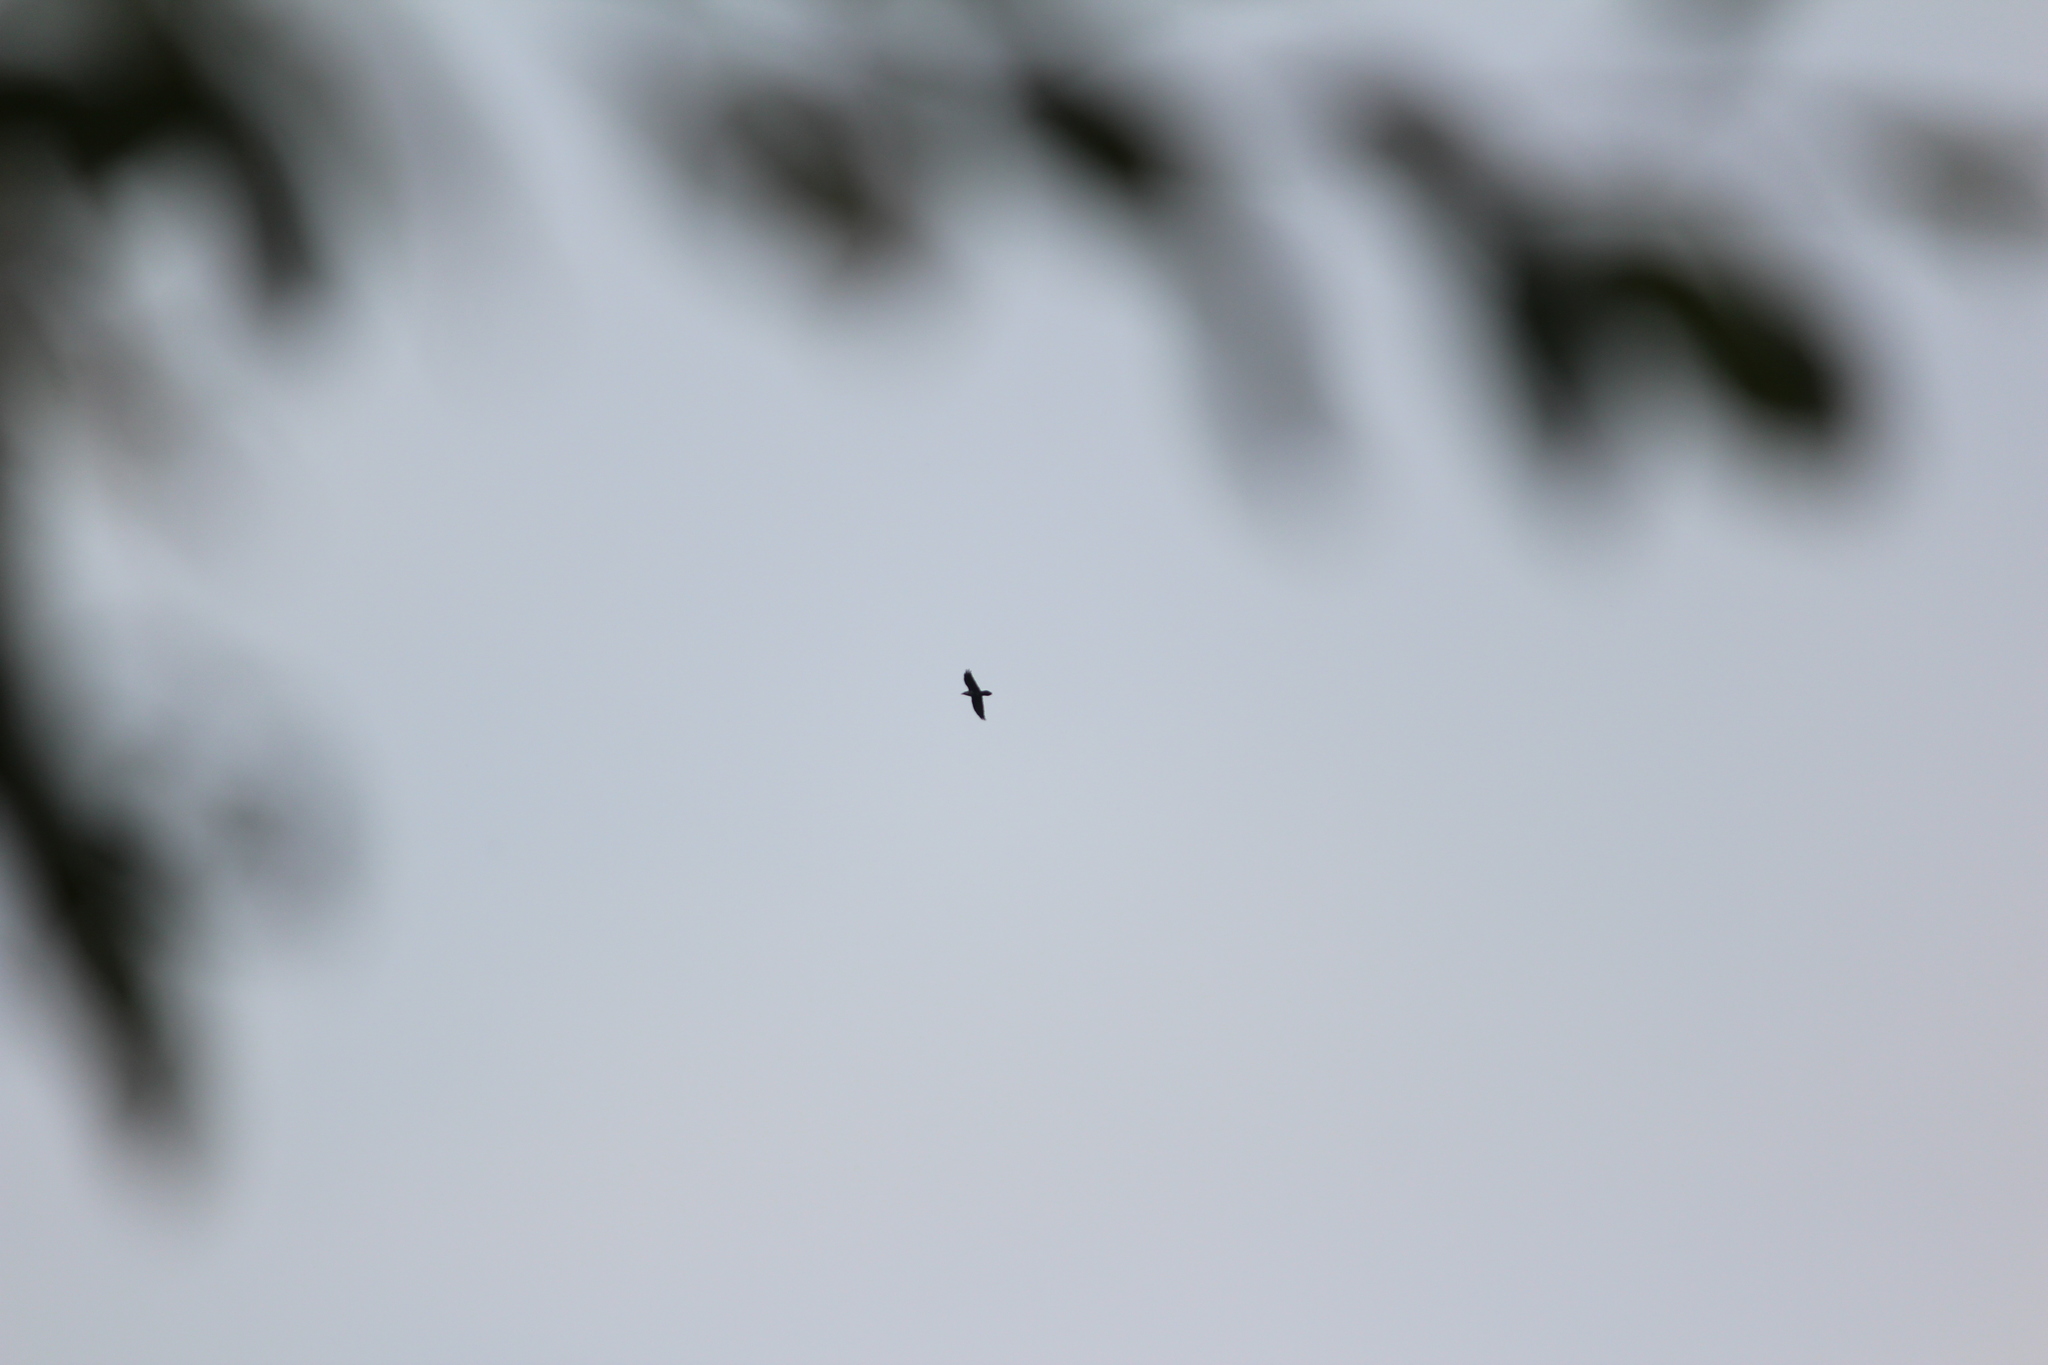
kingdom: Animalia
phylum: Chordata
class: Aves
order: Passeriformes
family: Corvidae
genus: Corvus
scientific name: Corvus corax
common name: Common raven
